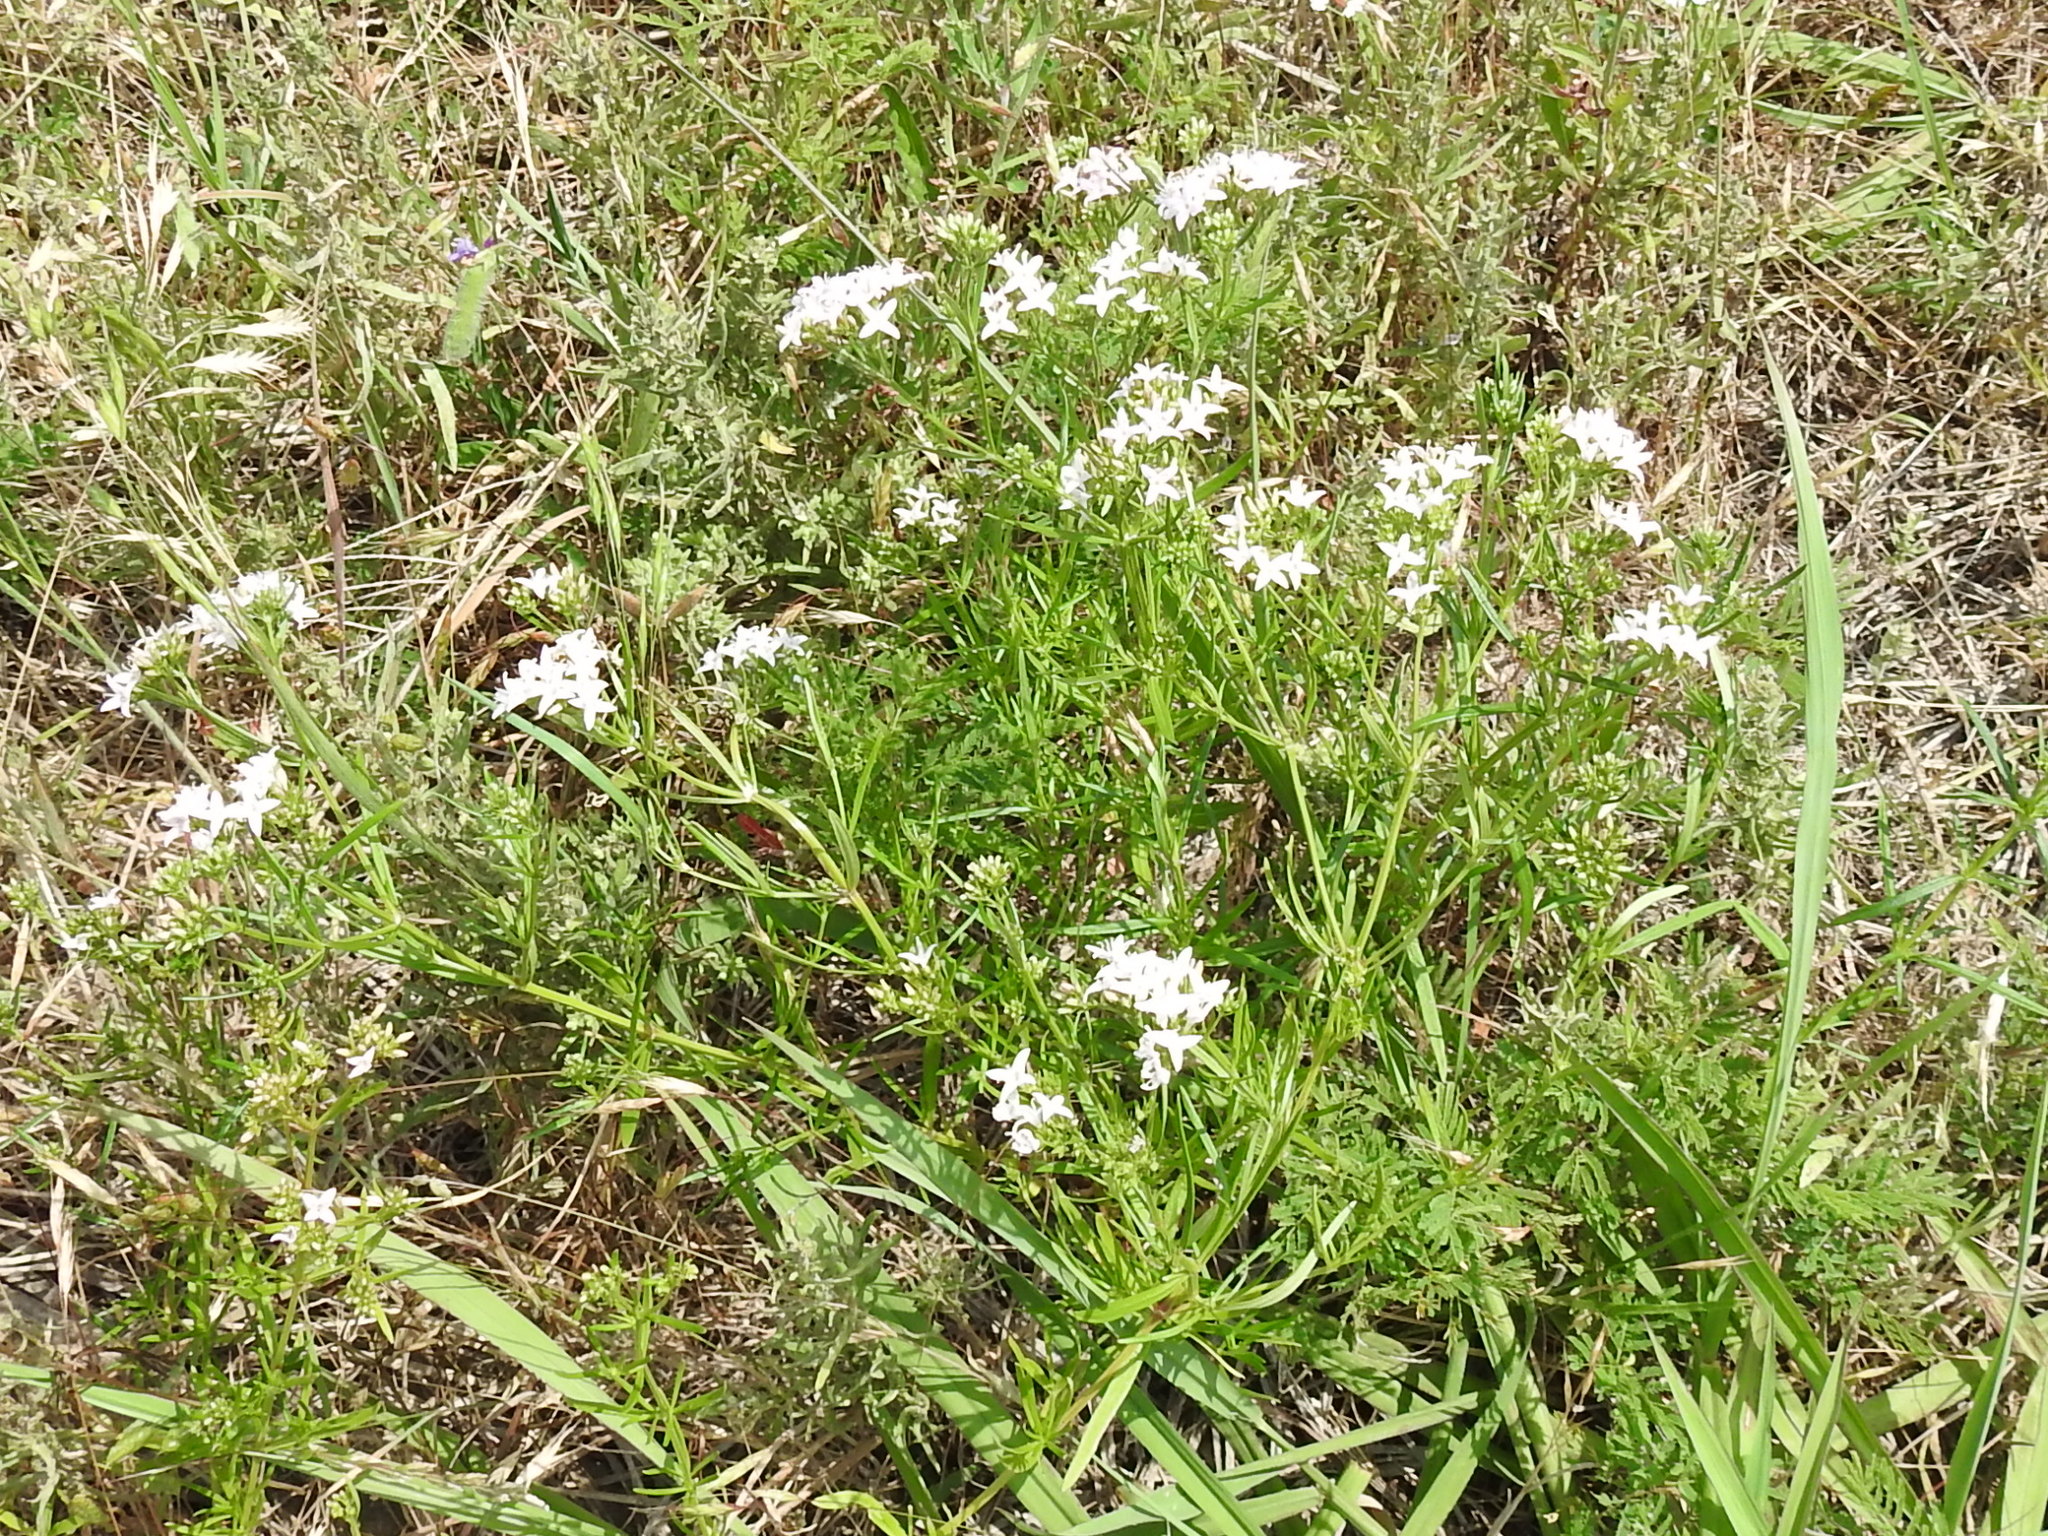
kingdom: Plantae
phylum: Tracheophyta
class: Magnoliopsida
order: Gentianales
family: Rubiaceae
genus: Stenaria
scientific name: Stenaria nigricans
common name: Diamondflowers
